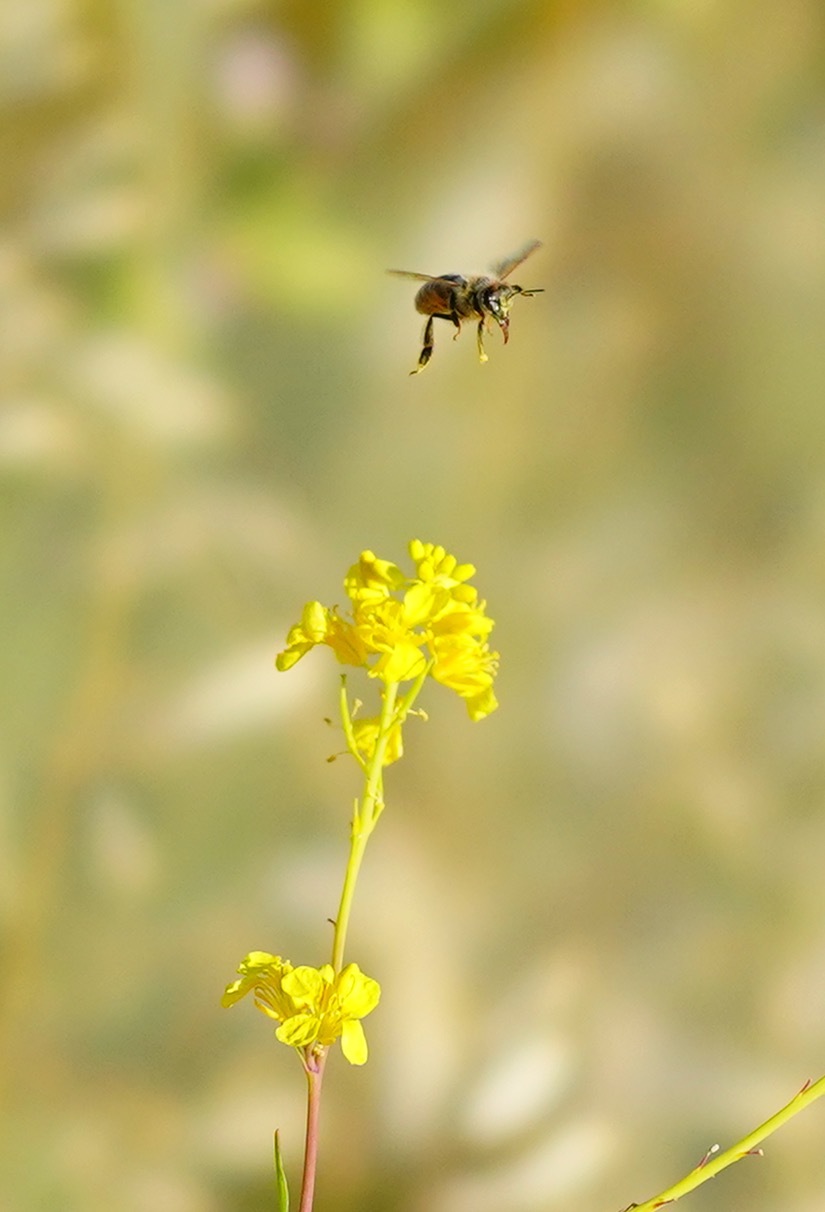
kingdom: Animalia
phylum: Arthropoda
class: Insecta
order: Hymenoptera
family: Apidae
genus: Apis
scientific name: Apis mellifera
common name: Honey bee
